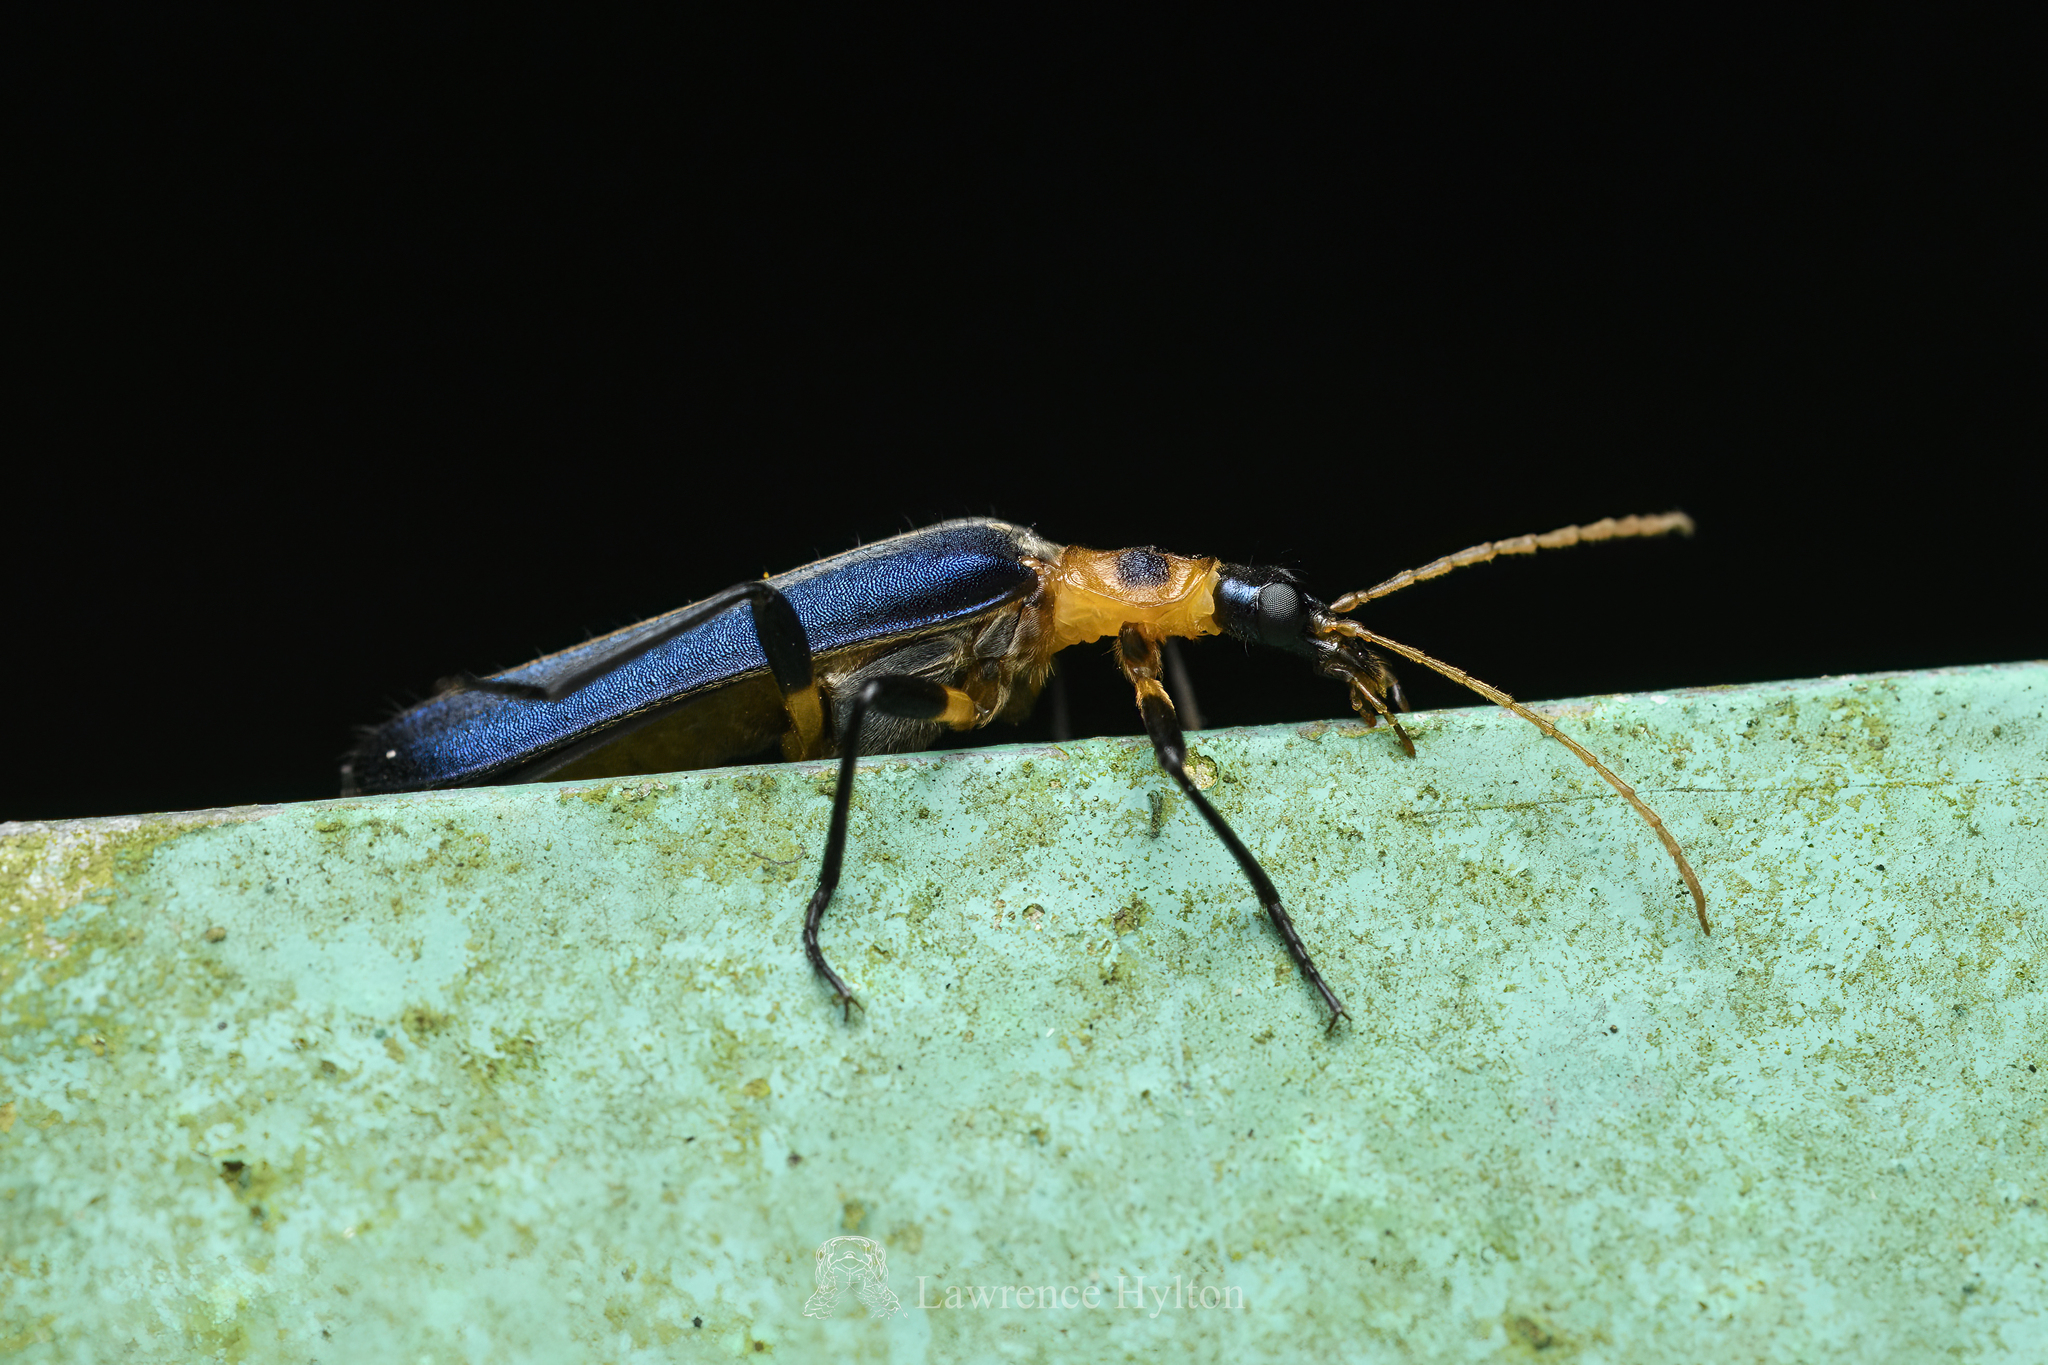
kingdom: Animalia
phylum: Arthropoda
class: Insecta
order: Coleoptera
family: Prionoceridae
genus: Idgia
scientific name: Idgia
